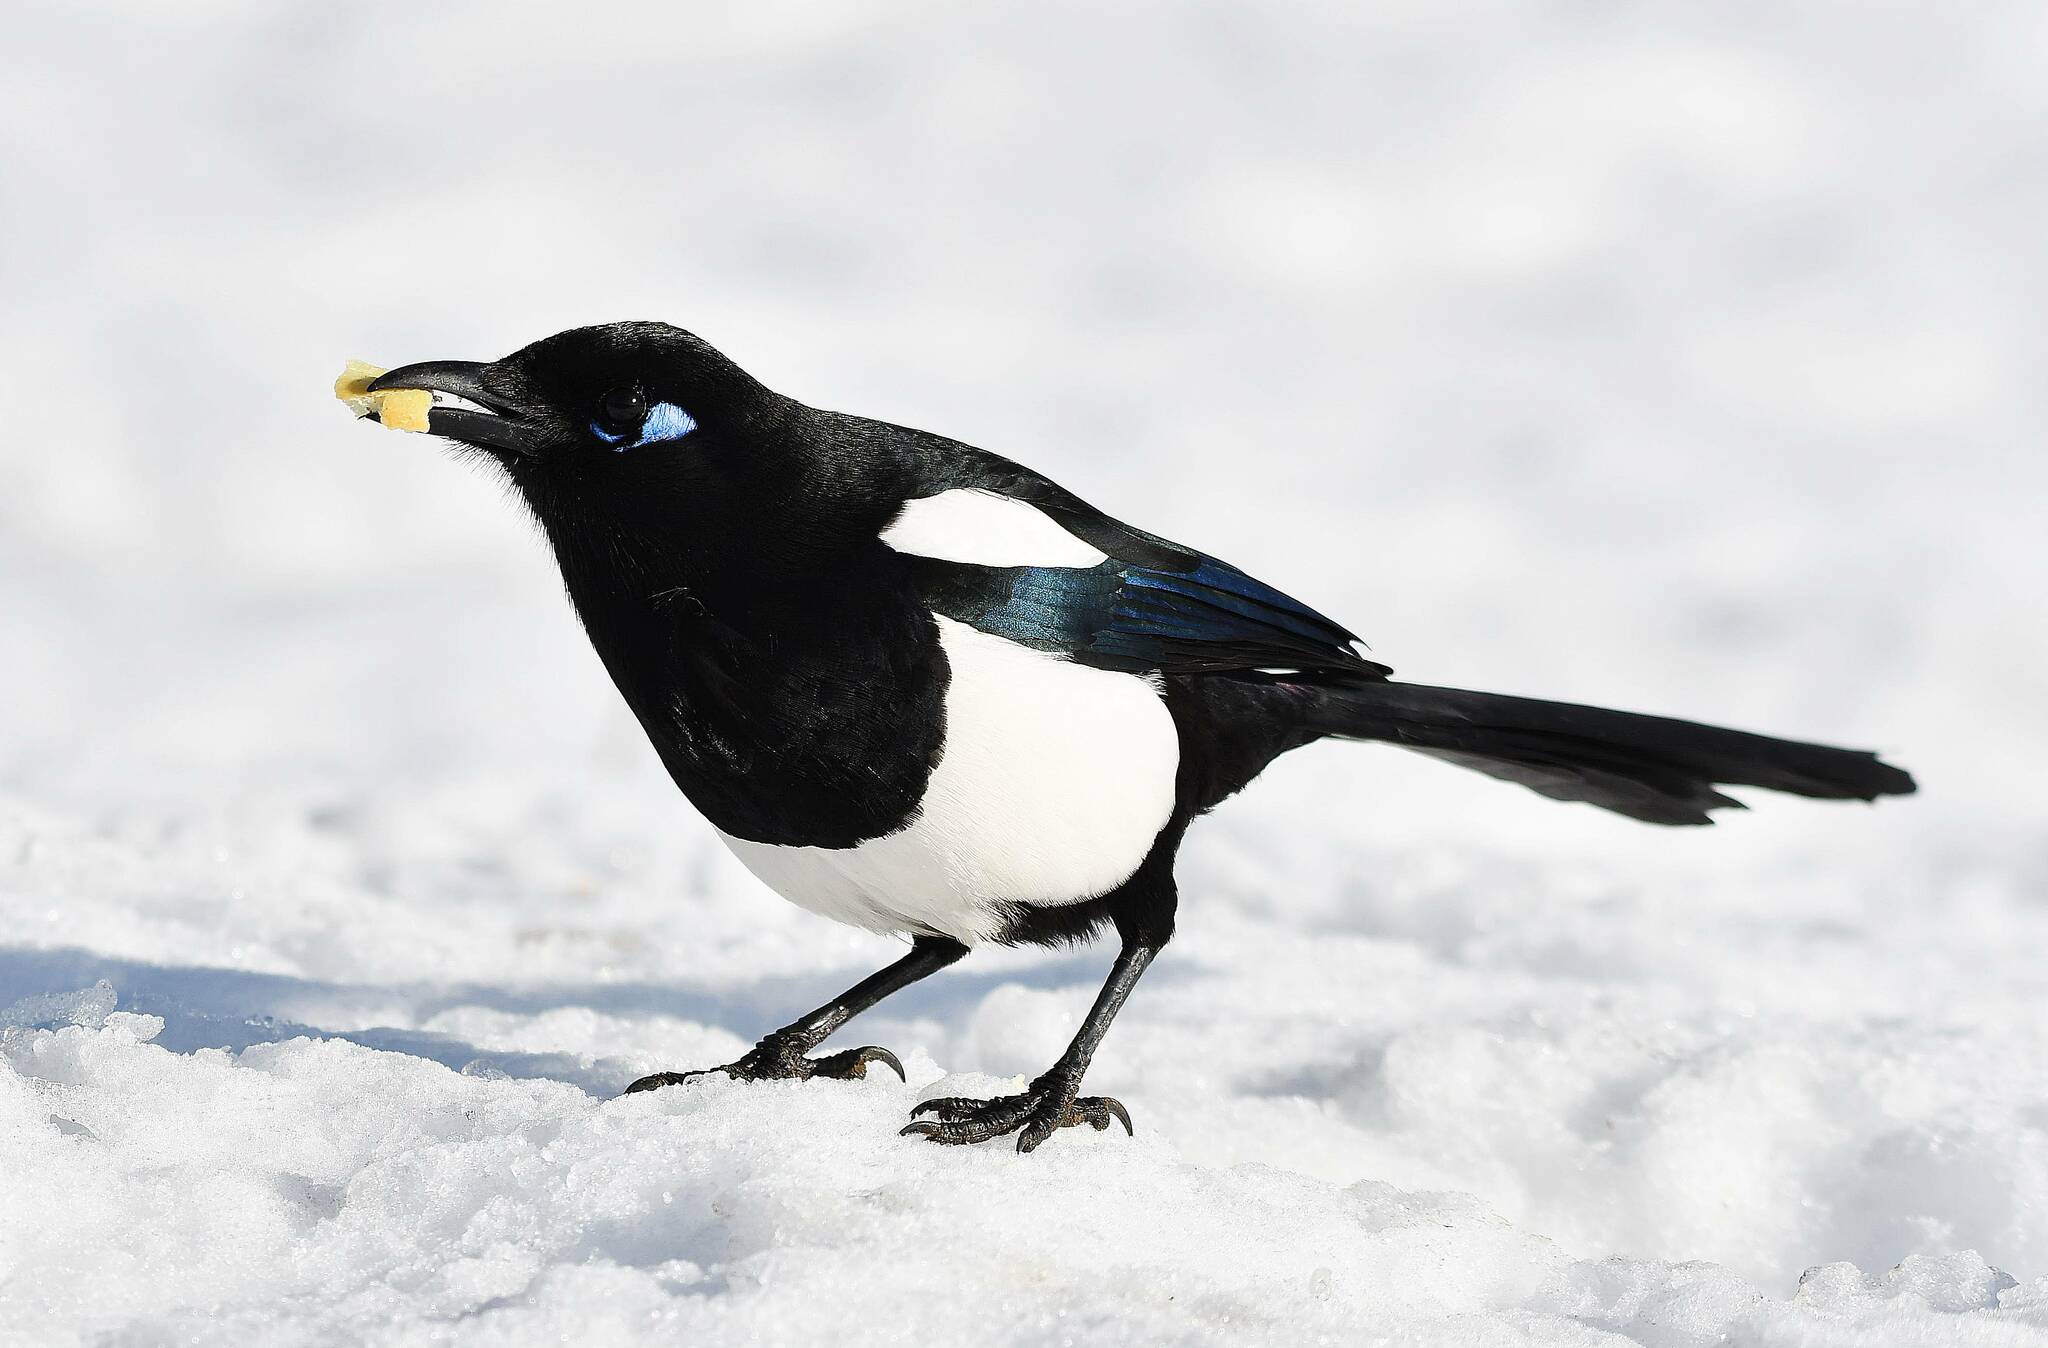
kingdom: Animalia
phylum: Chordata
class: Aves
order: Passeriformes
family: Corvidae
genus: Pica
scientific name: Pica mauritanica
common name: Maghreb magpie
